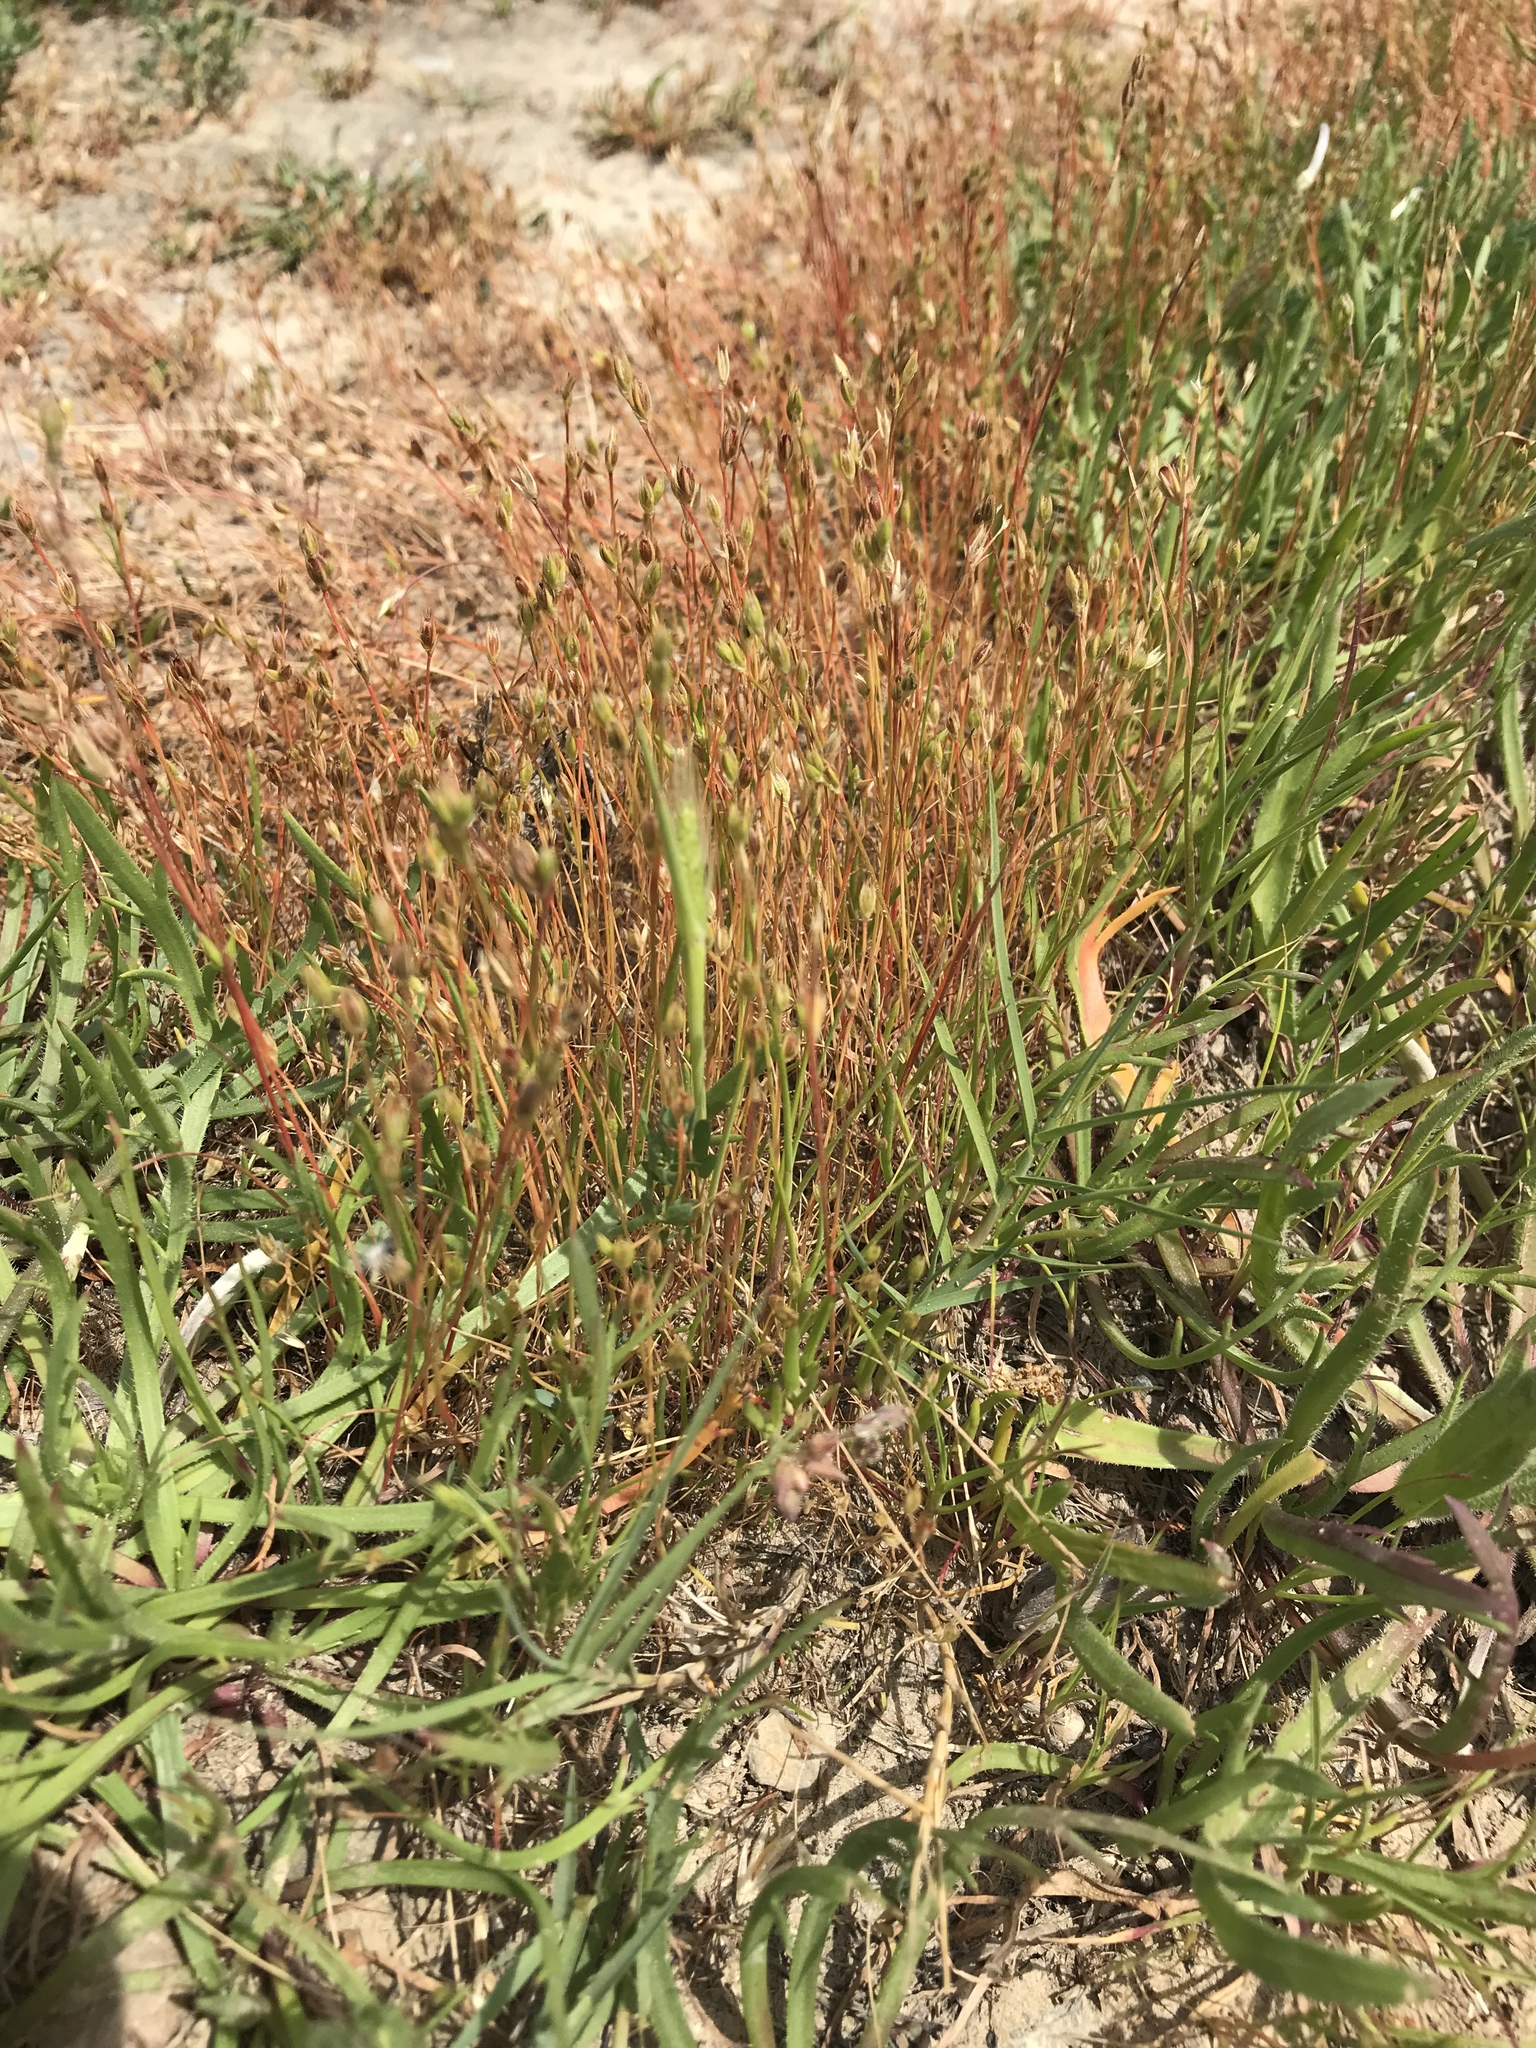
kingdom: Plantae
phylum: Tracheophyta
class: Liliopsida
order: Poales
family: Juncaceae
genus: Juncus
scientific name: Juncus bufonius
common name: Toad rush
